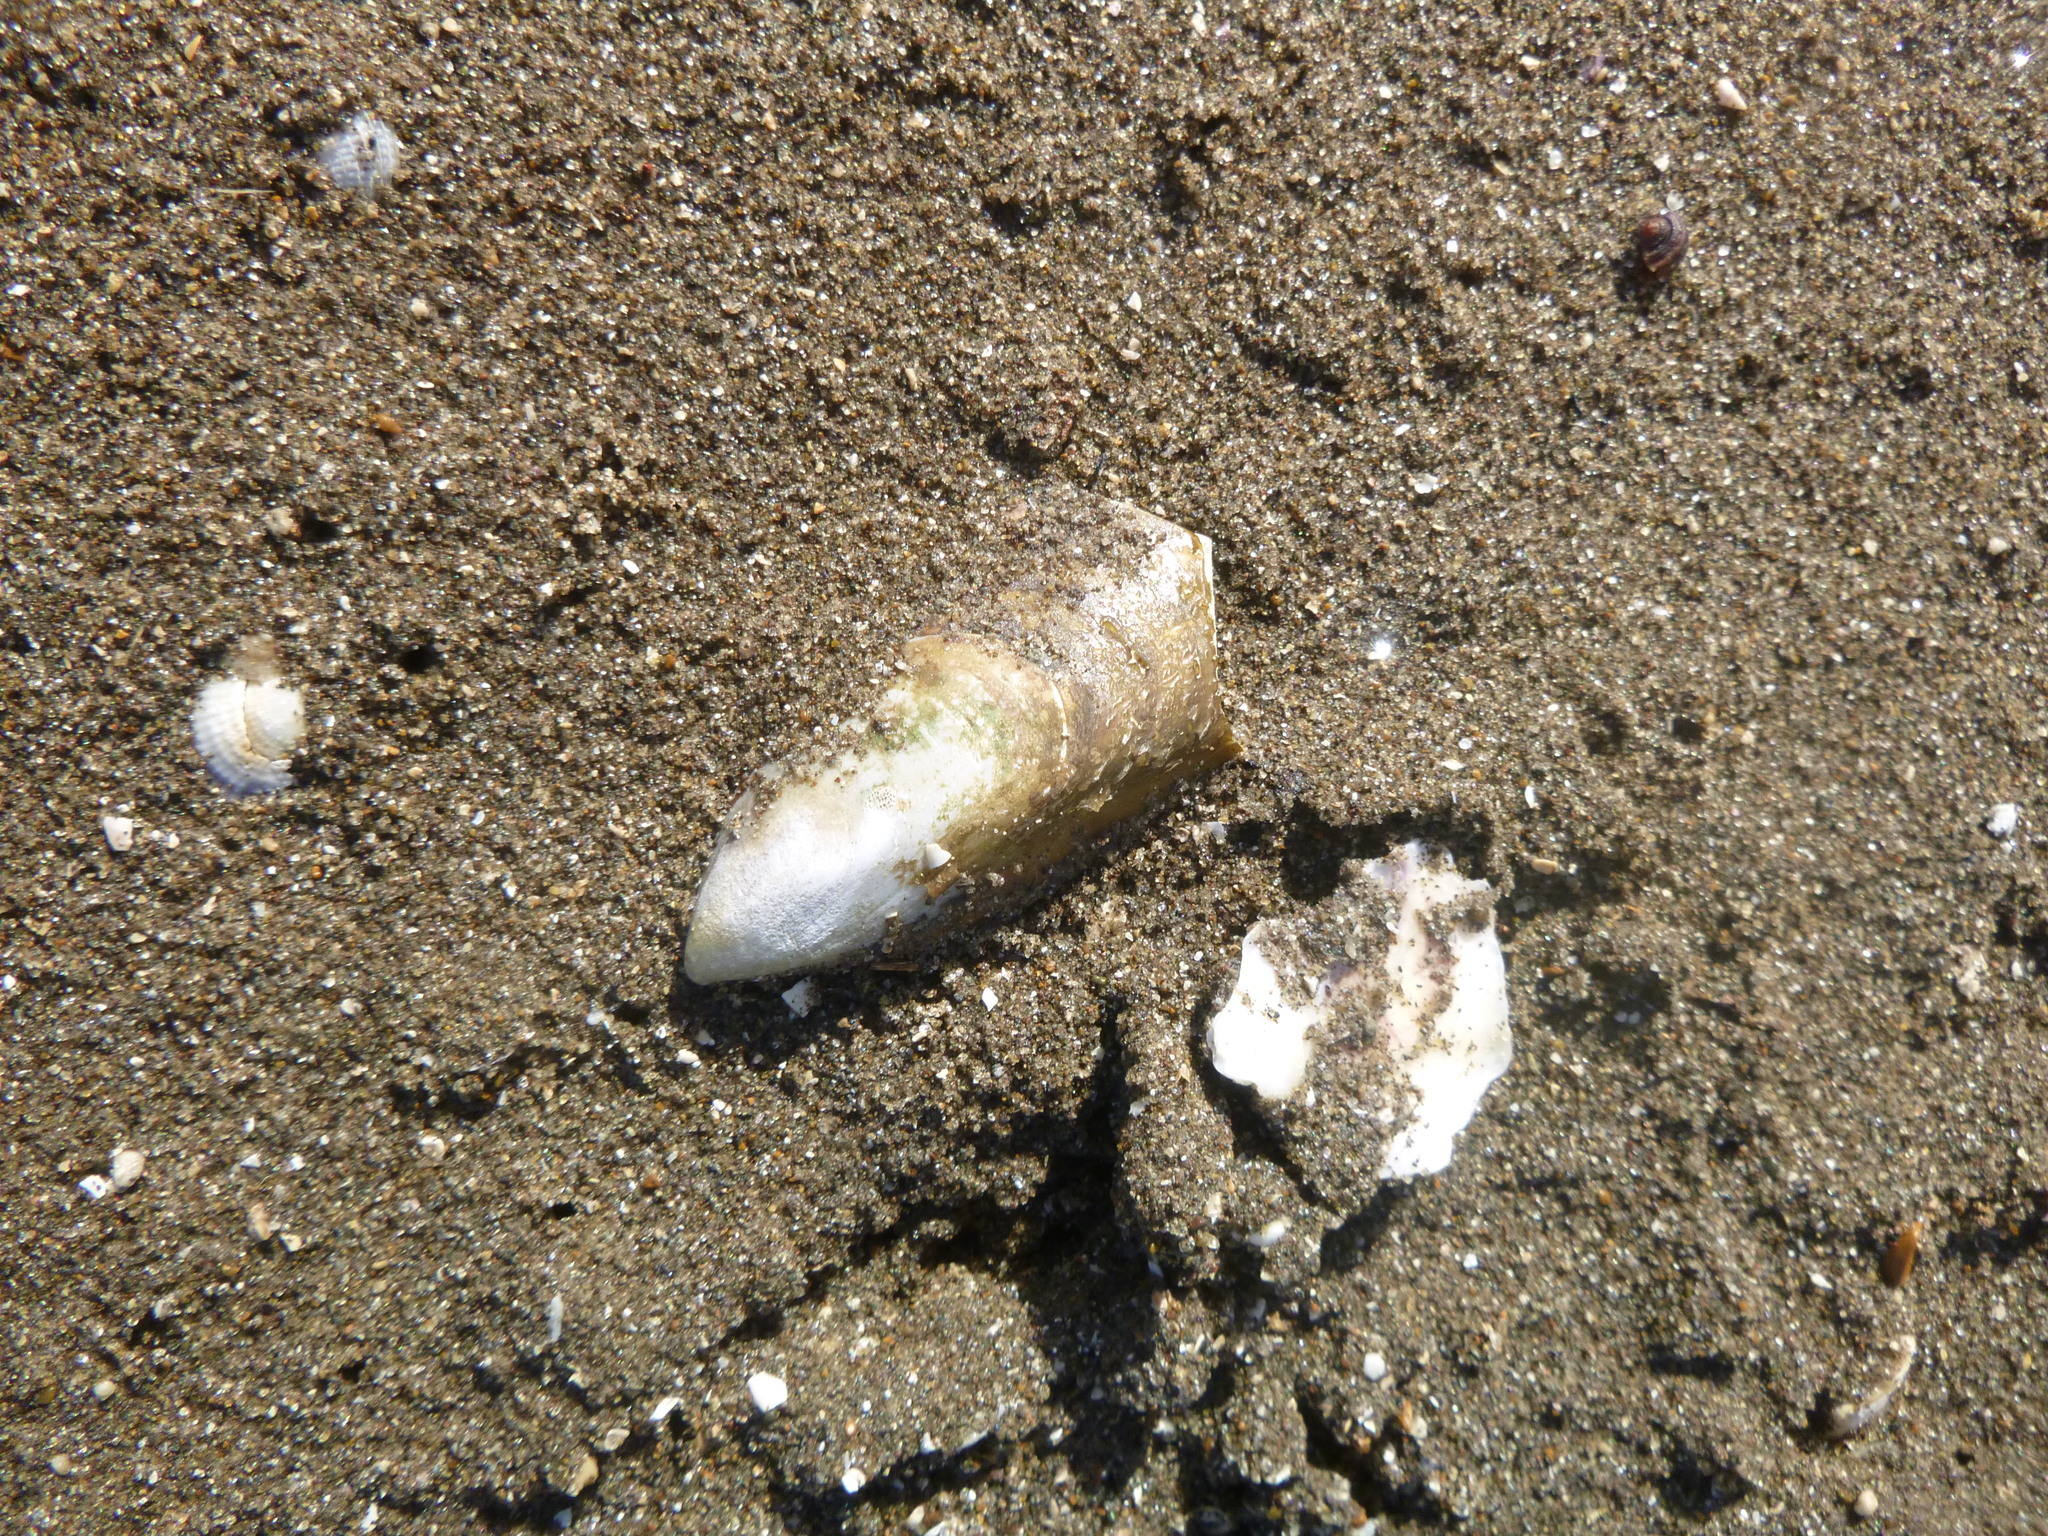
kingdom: Animalia
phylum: Mollusca
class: Bivalvia
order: Mytilida
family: Mytilidae
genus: Perna
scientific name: Perna canaliculus
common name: New zealand greenshelltm
